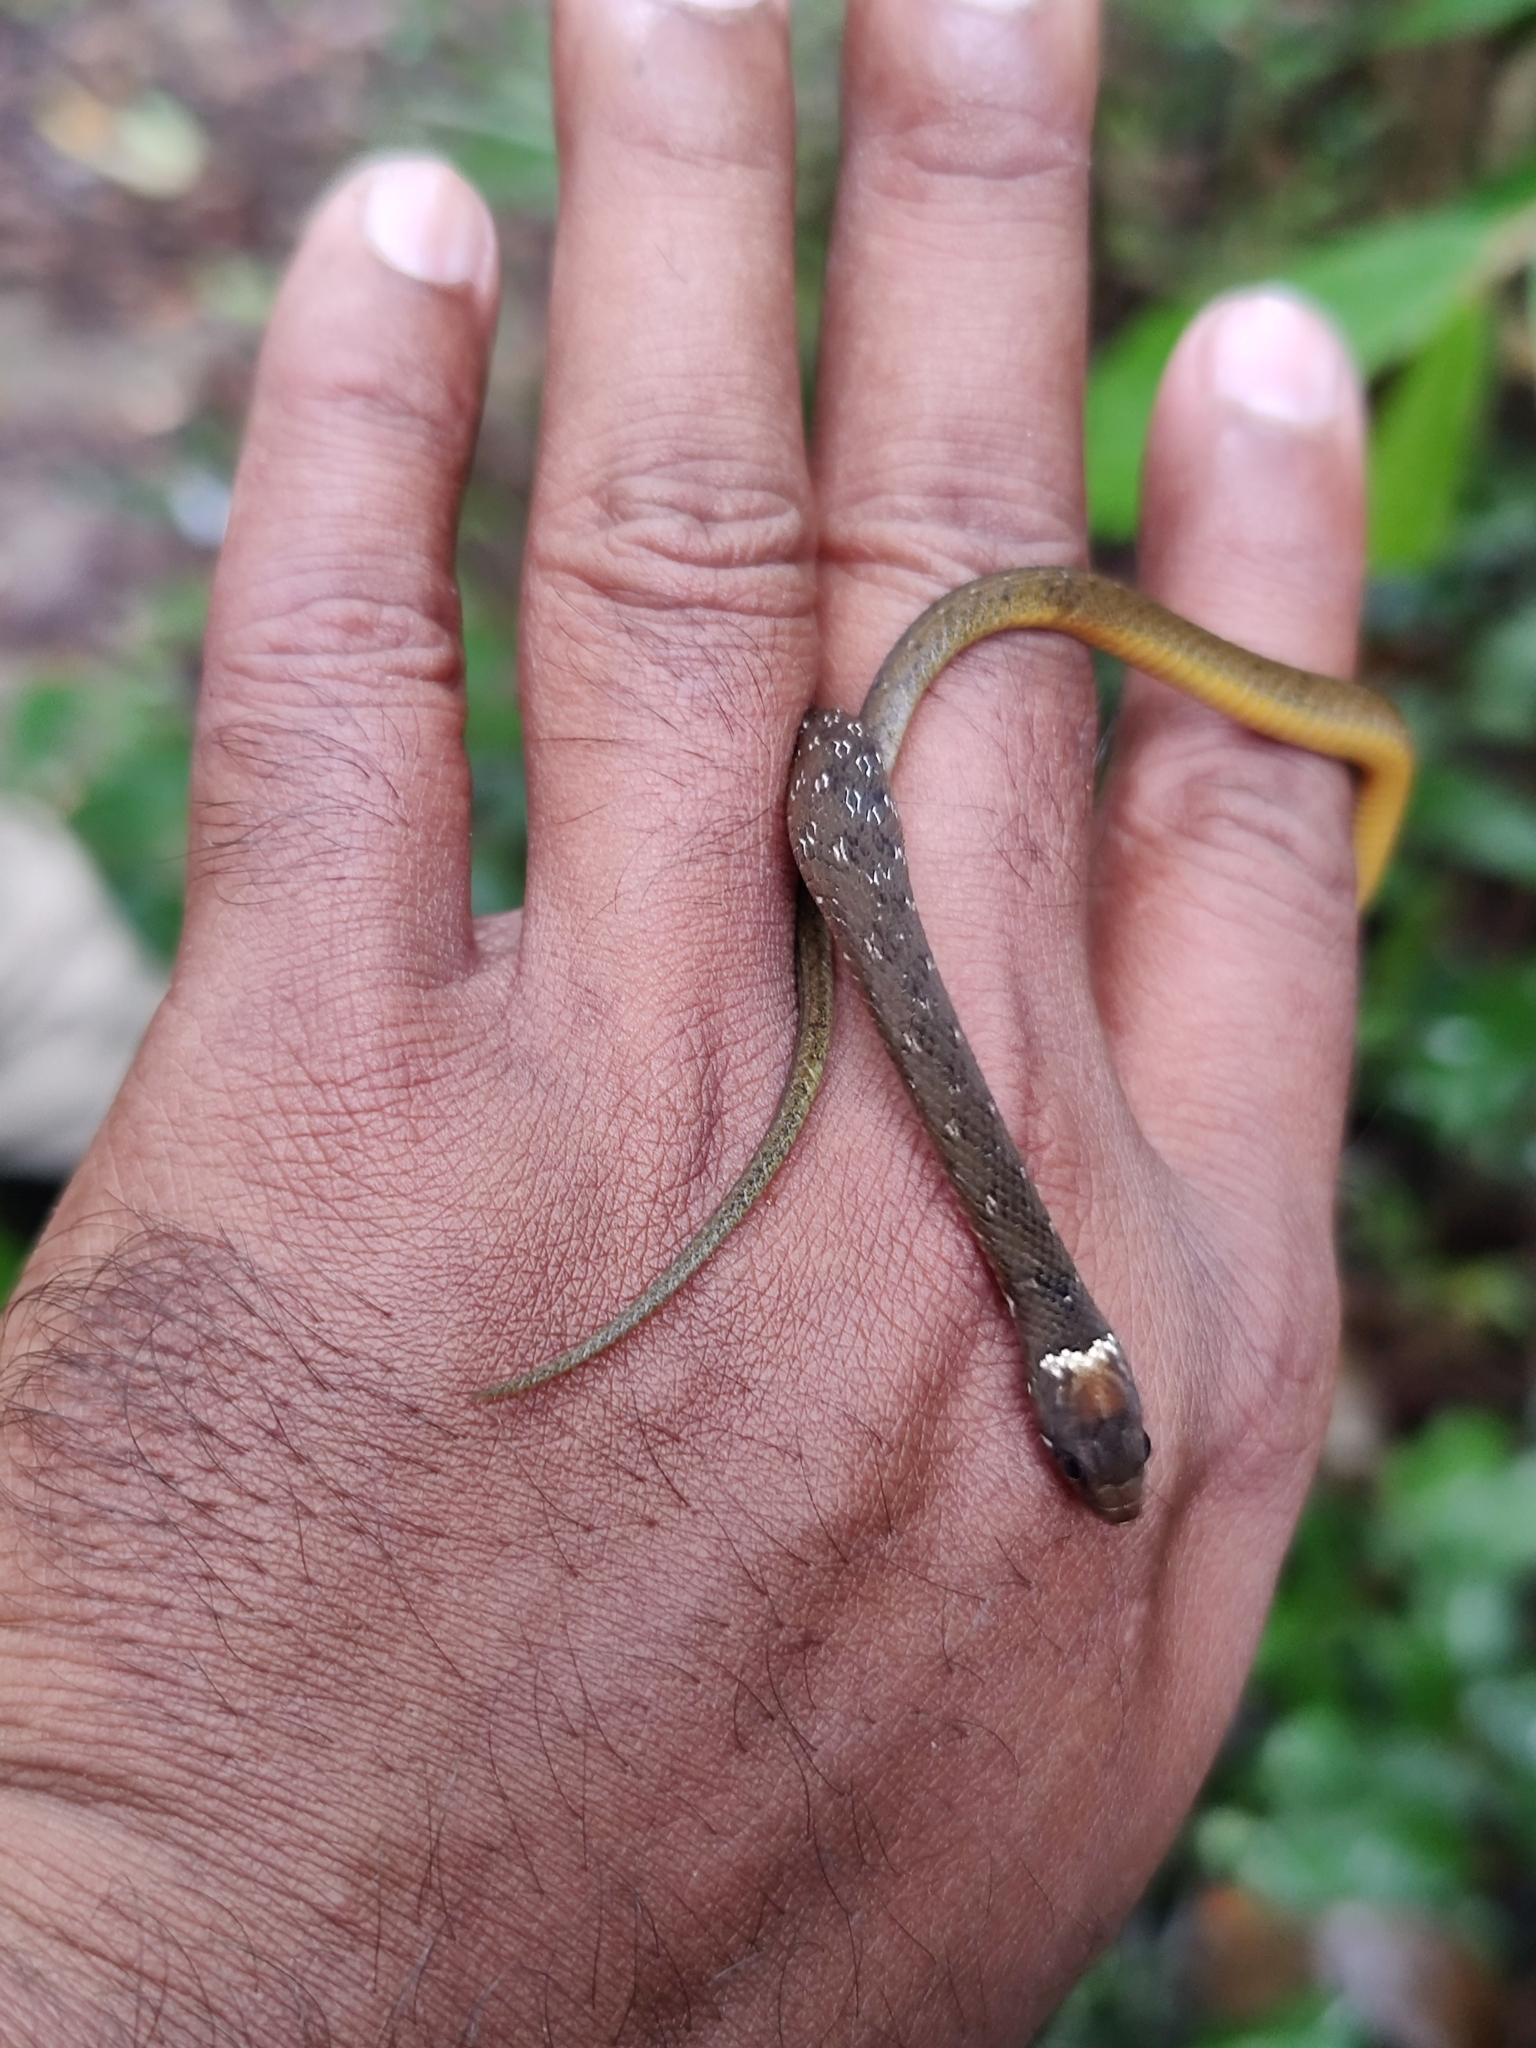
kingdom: Animalia
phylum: Chordata
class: Squamata
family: Colubridae
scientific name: Colubridae
